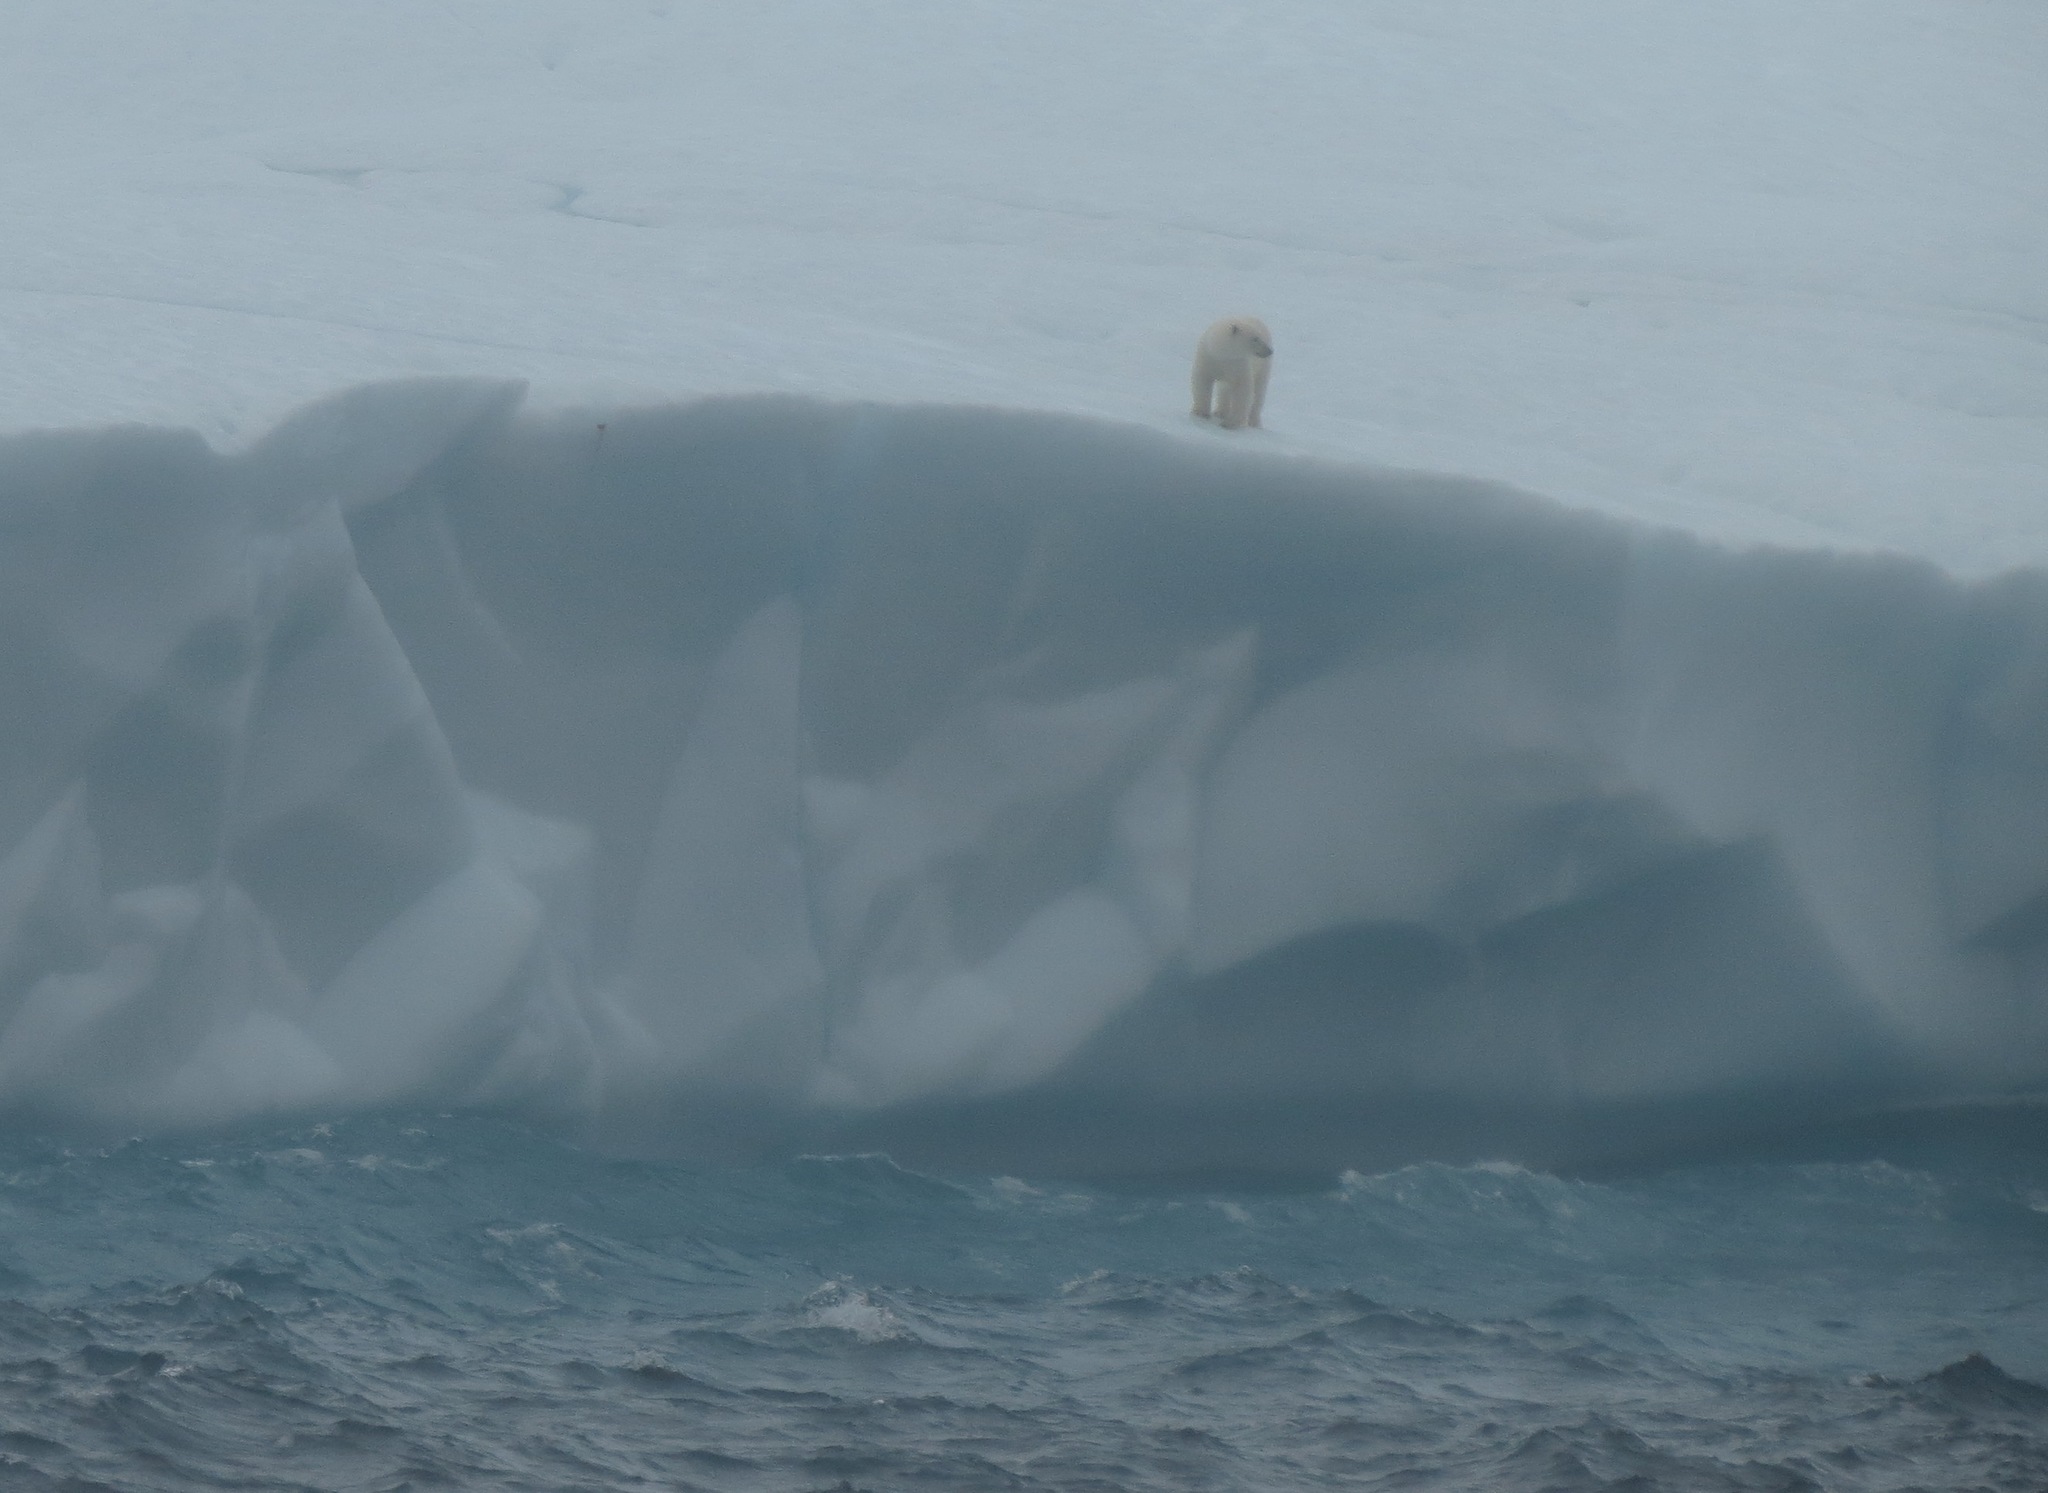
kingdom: Animalia
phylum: Chordata
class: Mammalia
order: Carnivora
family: Ursidae
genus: Ursus
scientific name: Ursus maritimus
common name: Polar bear
